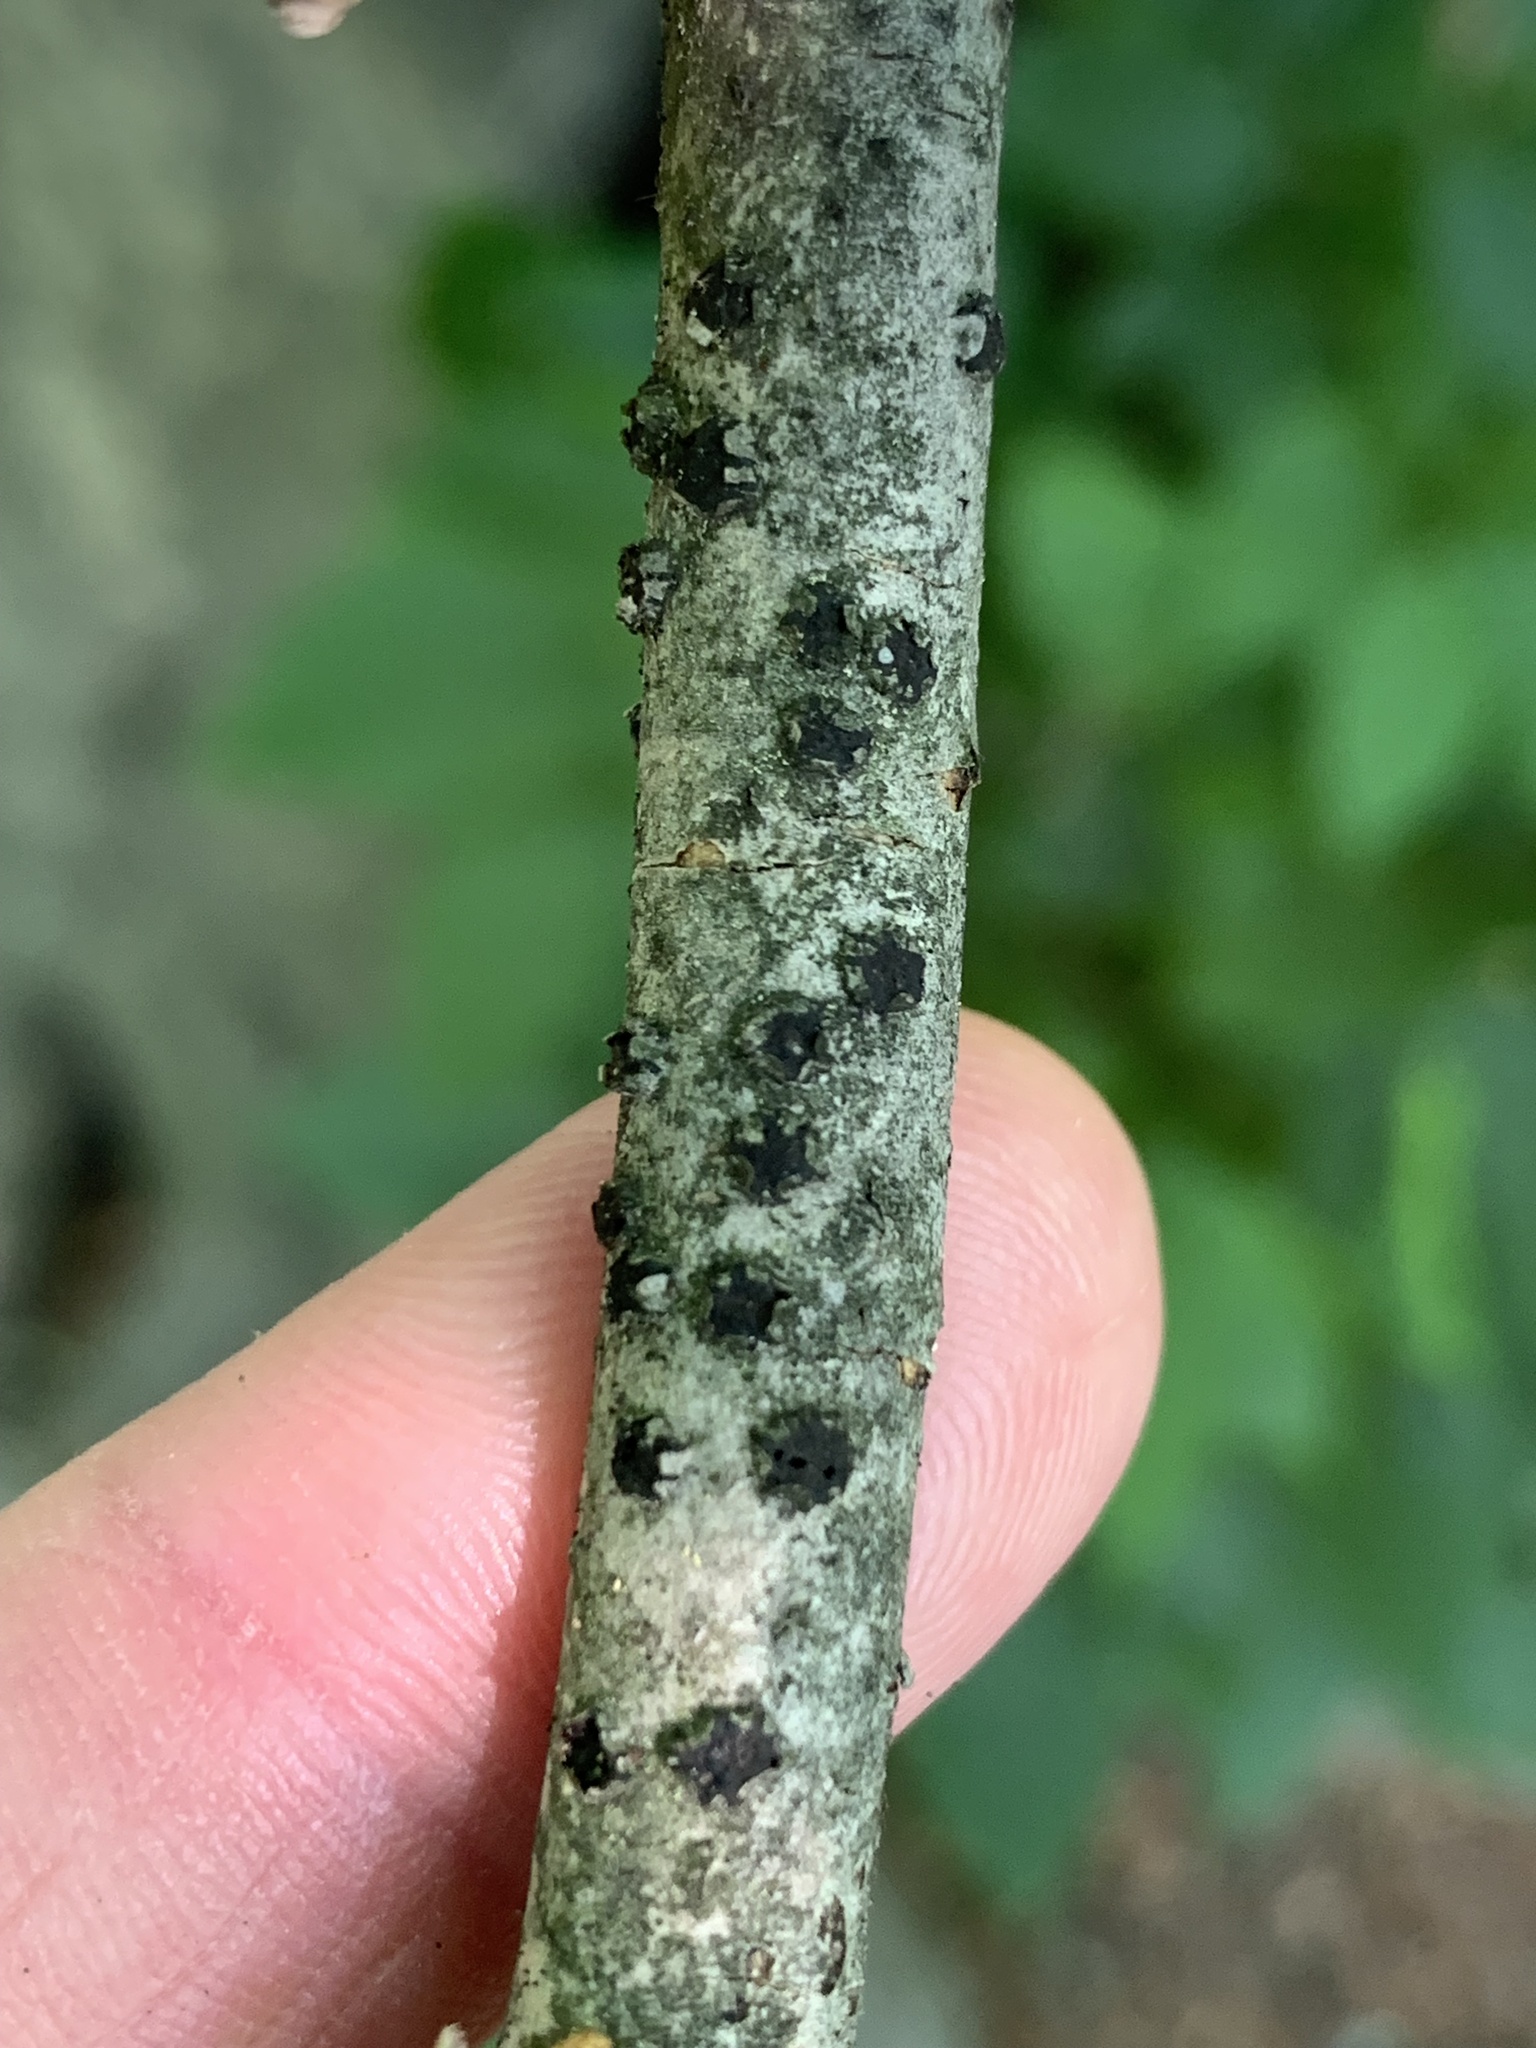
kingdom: Fungi
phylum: Ascomycota
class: Sordariomycetes
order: Xylariales
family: Diatrypaceae
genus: Diatrype
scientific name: Diatrype virescens
